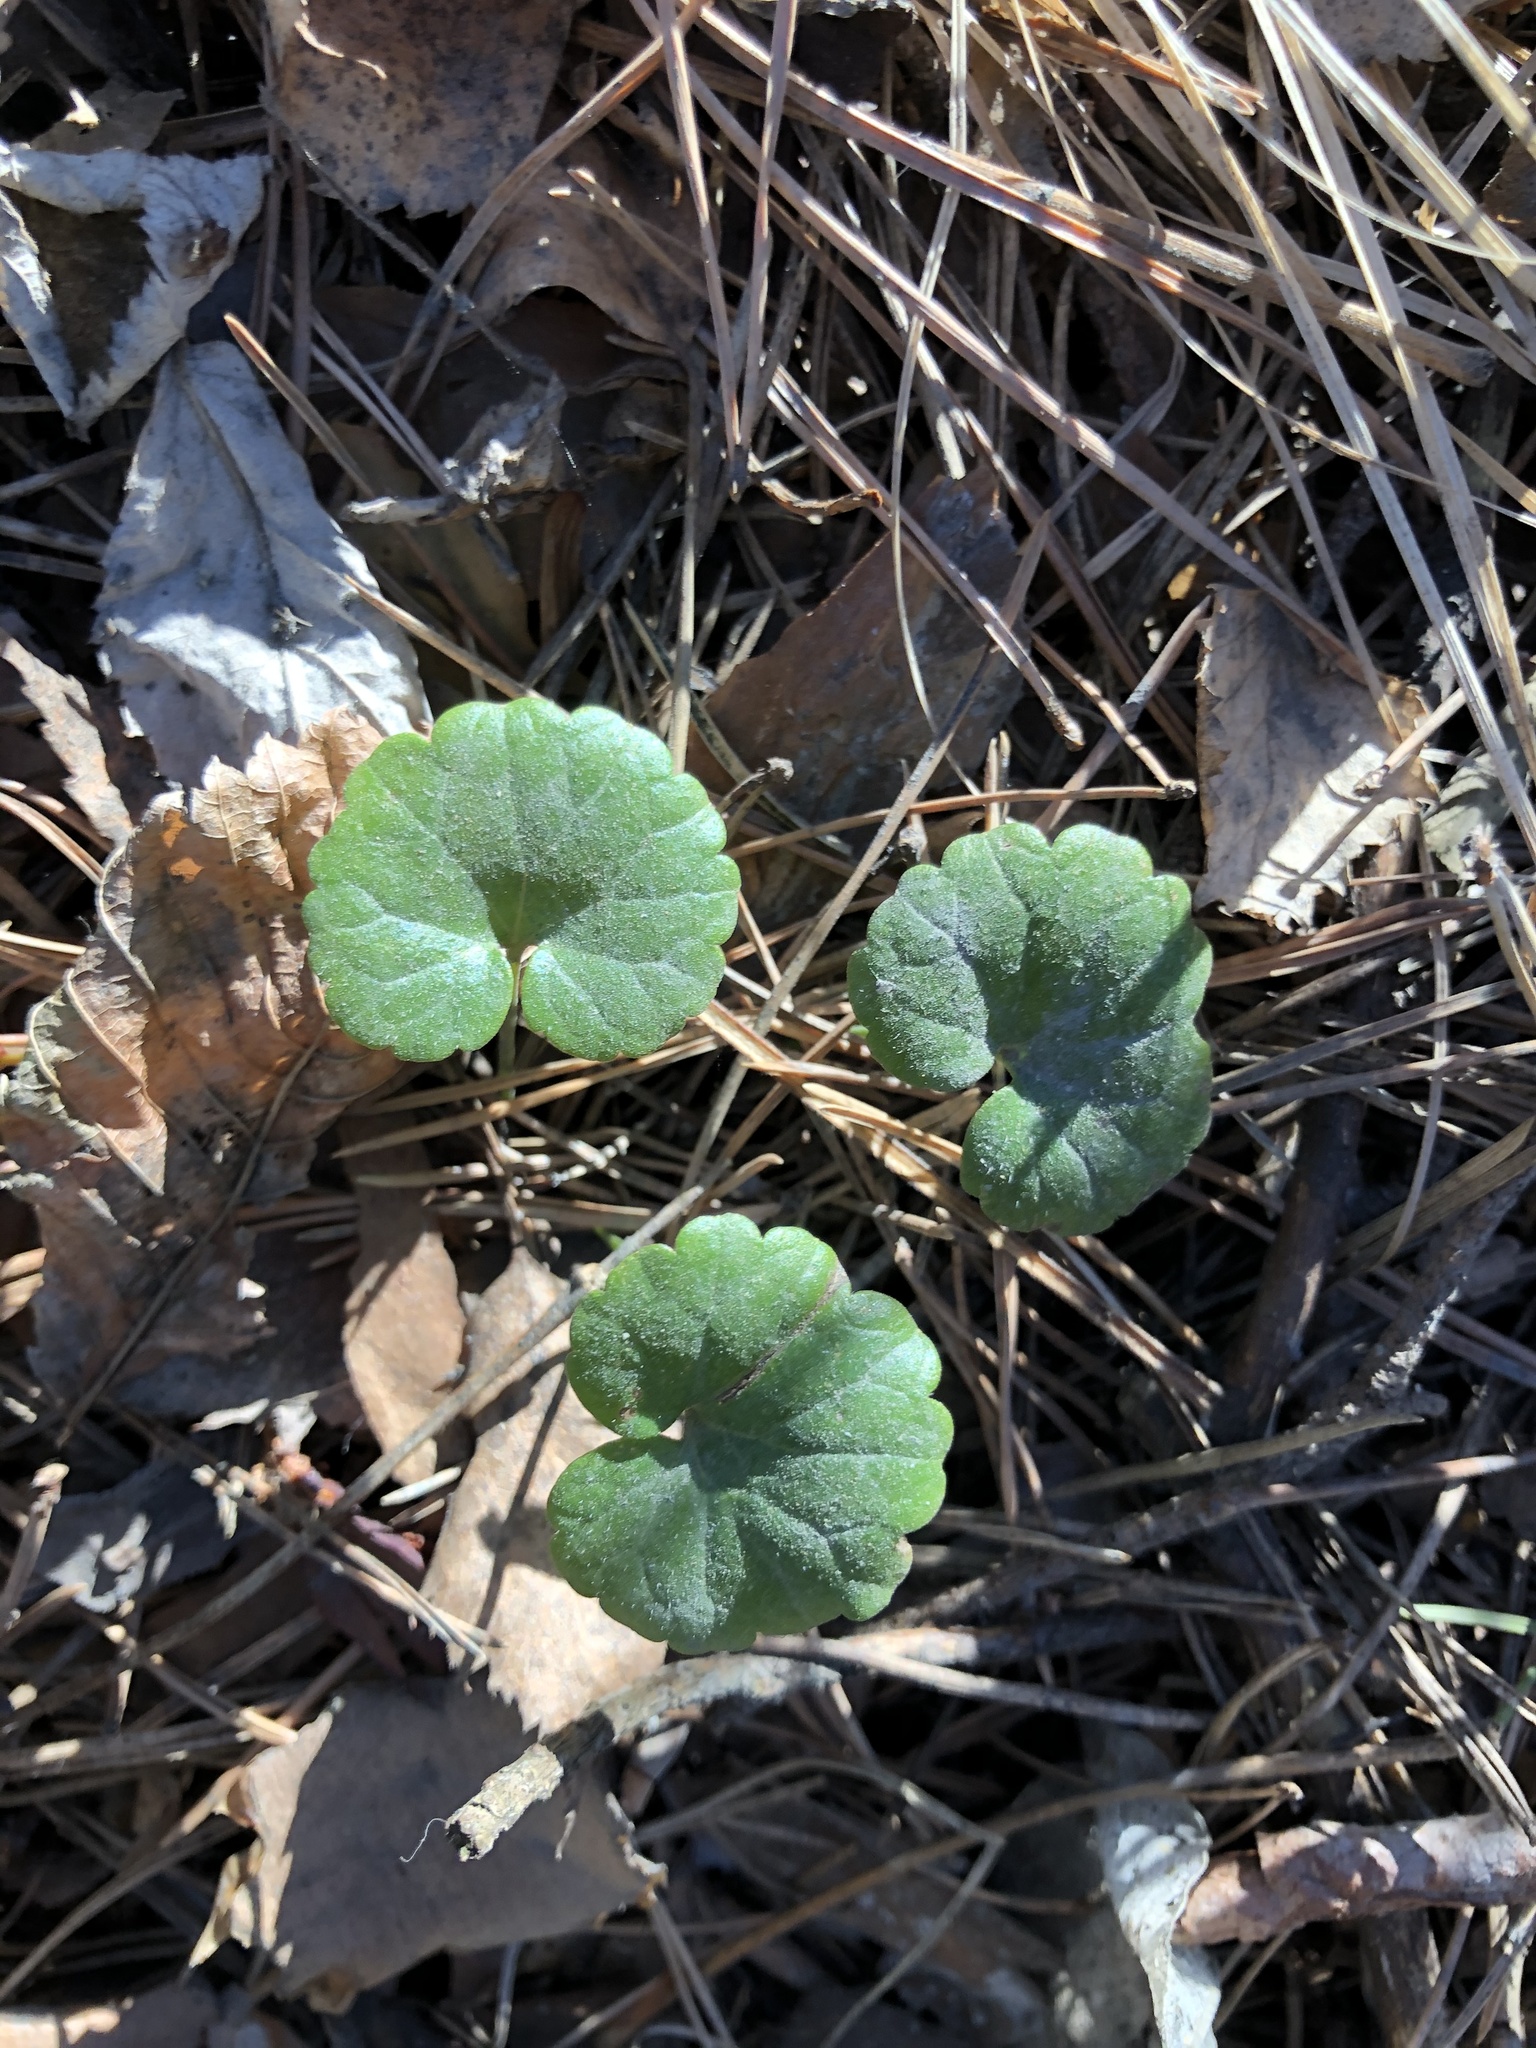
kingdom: Plantae
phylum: Tracheophyta
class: Magnoliopsida
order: Lamiales
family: Lamiaceae
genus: Glechoma
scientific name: Glechoma hederacea
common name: Ground ivy
